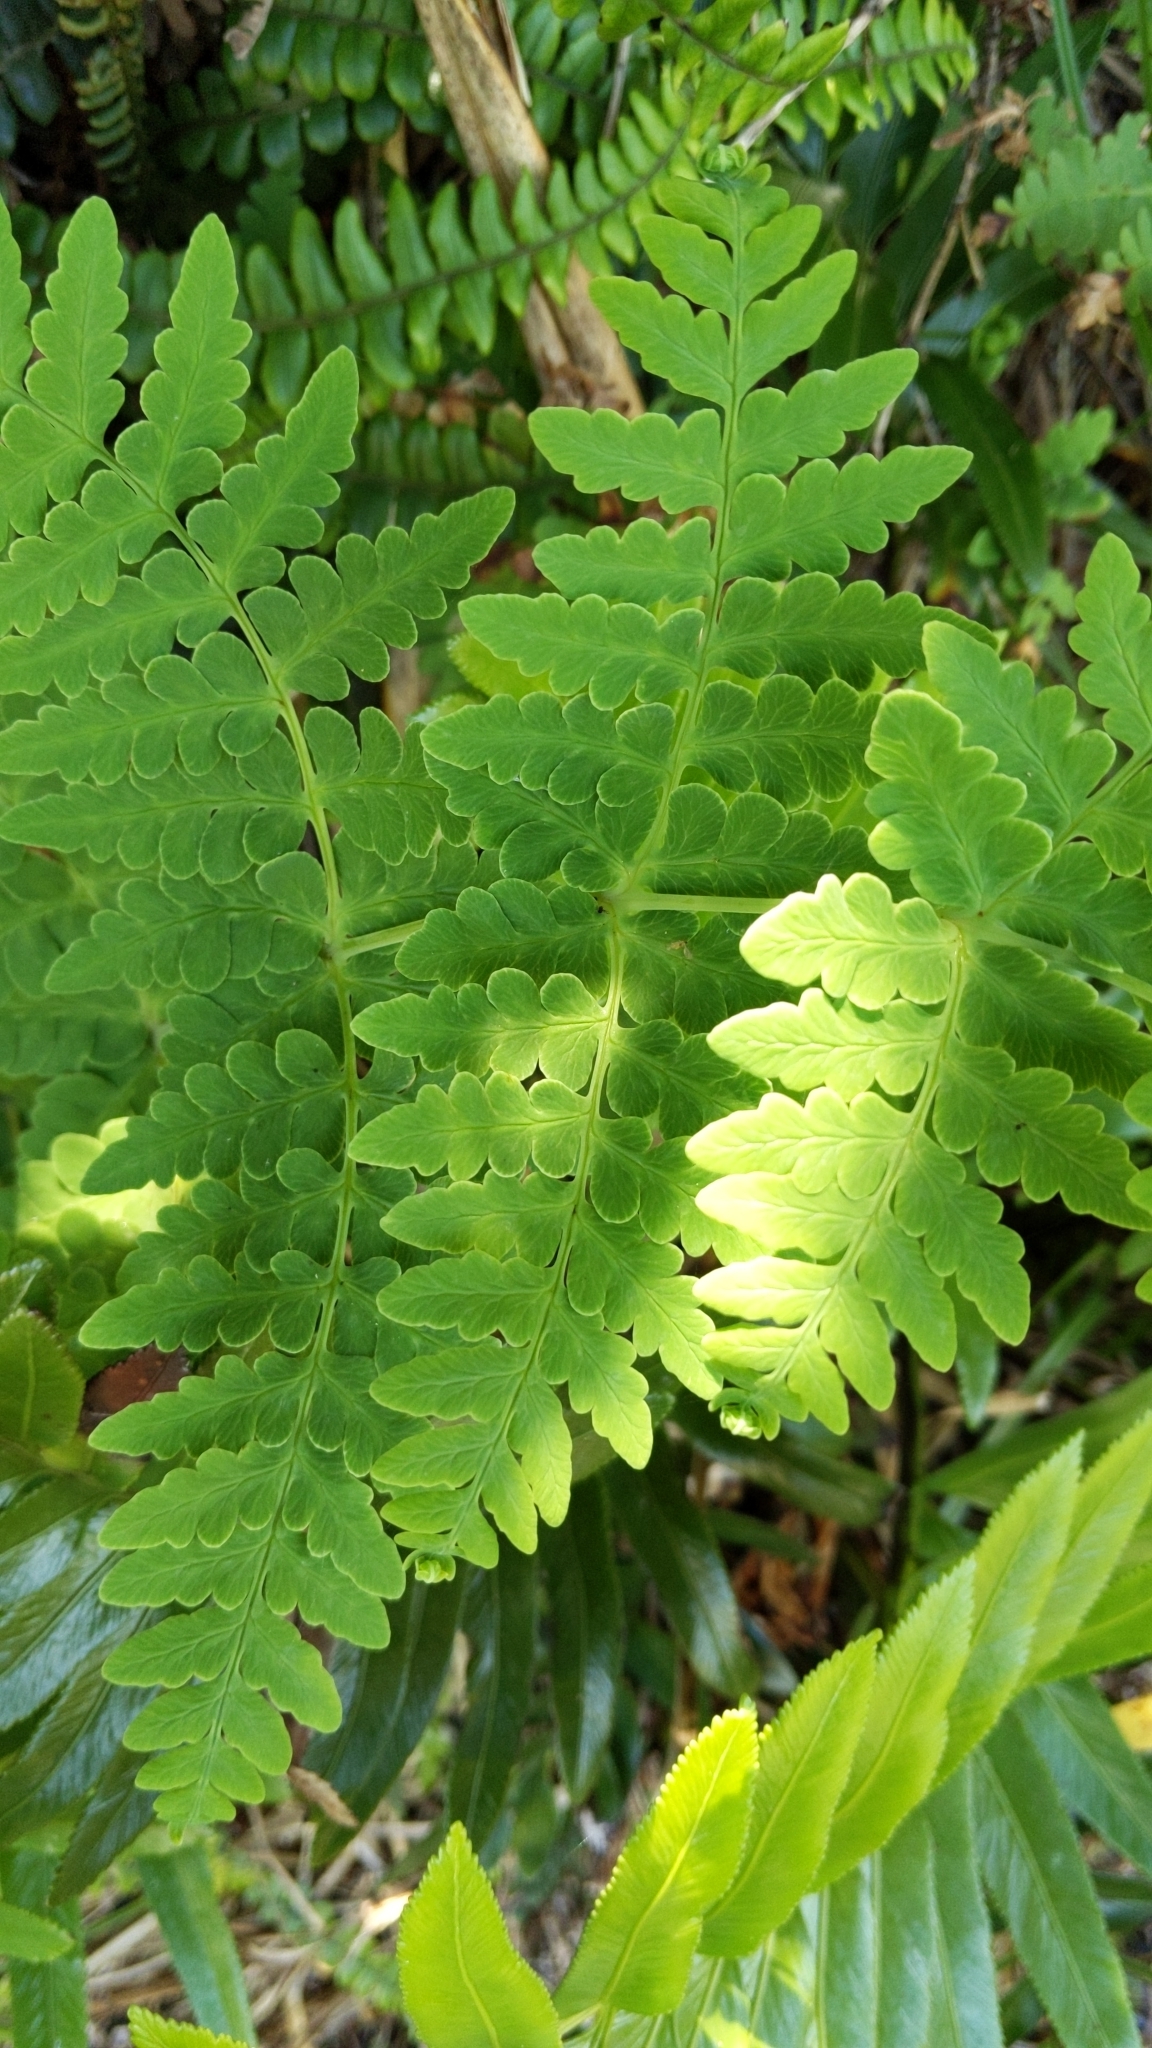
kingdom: Plantae
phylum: Tracheophyta
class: Polypodiopsida
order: Polypodiales
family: Dennstaedtiaceae
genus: Histiopteris
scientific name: Histiopteris incisa
